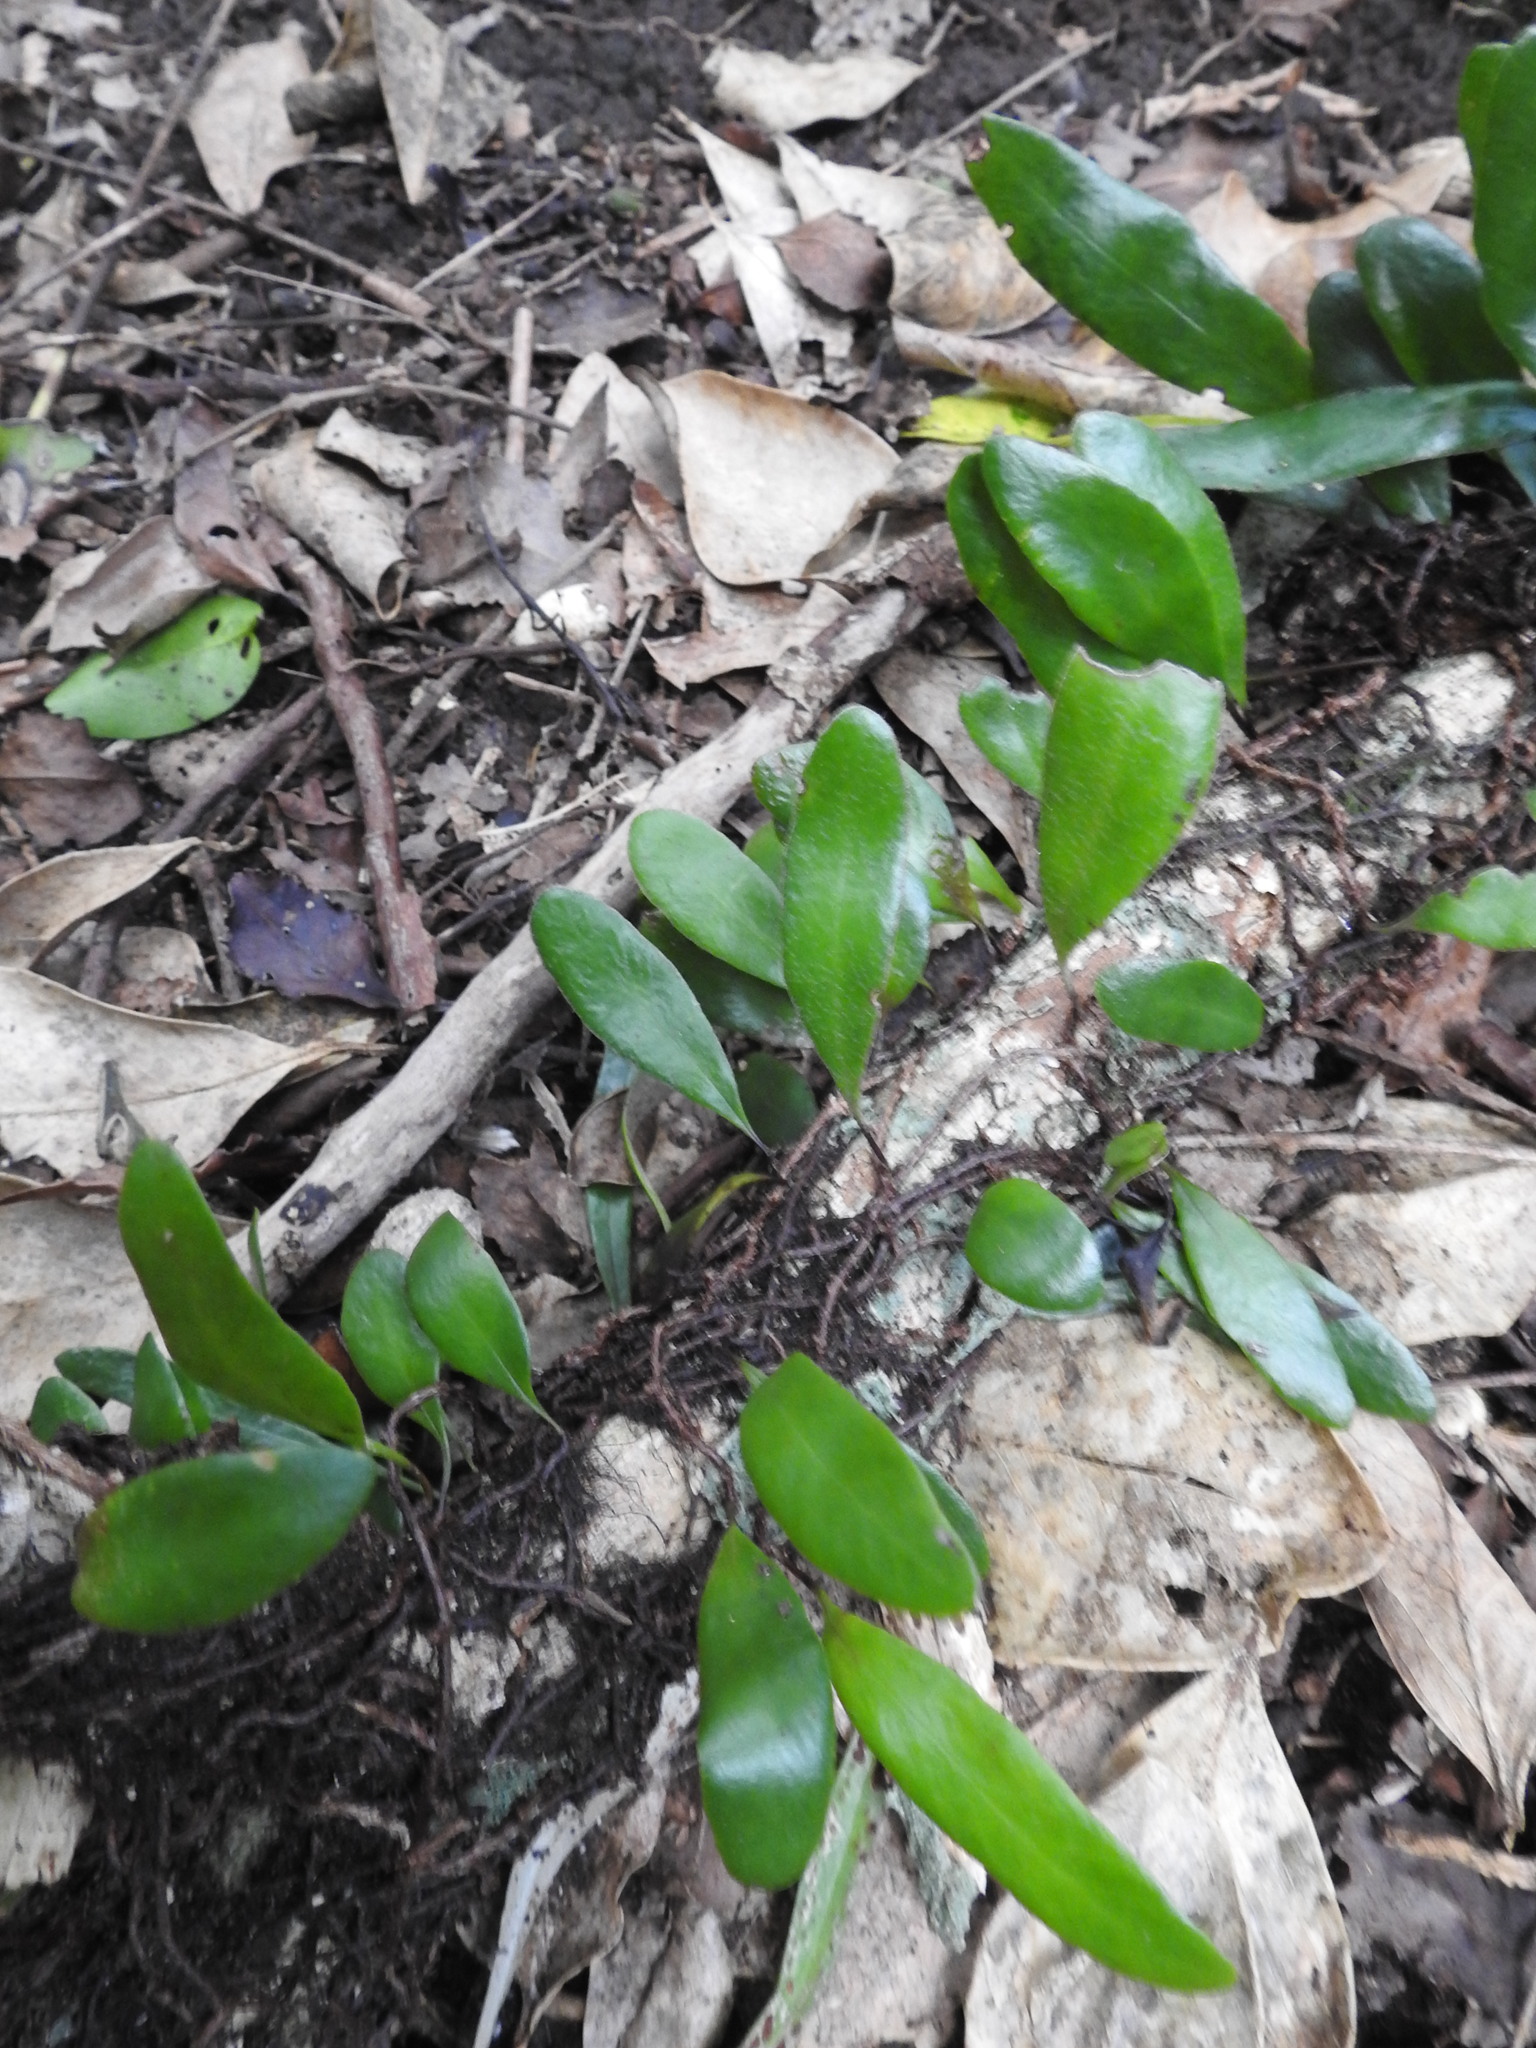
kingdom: Plantae
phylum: Tracheophyta
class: Polypodiopsida
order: Polypodiales
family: Polypodiaceae
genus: Pyrrosia
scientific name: Pyrrosia eleagnifolia
